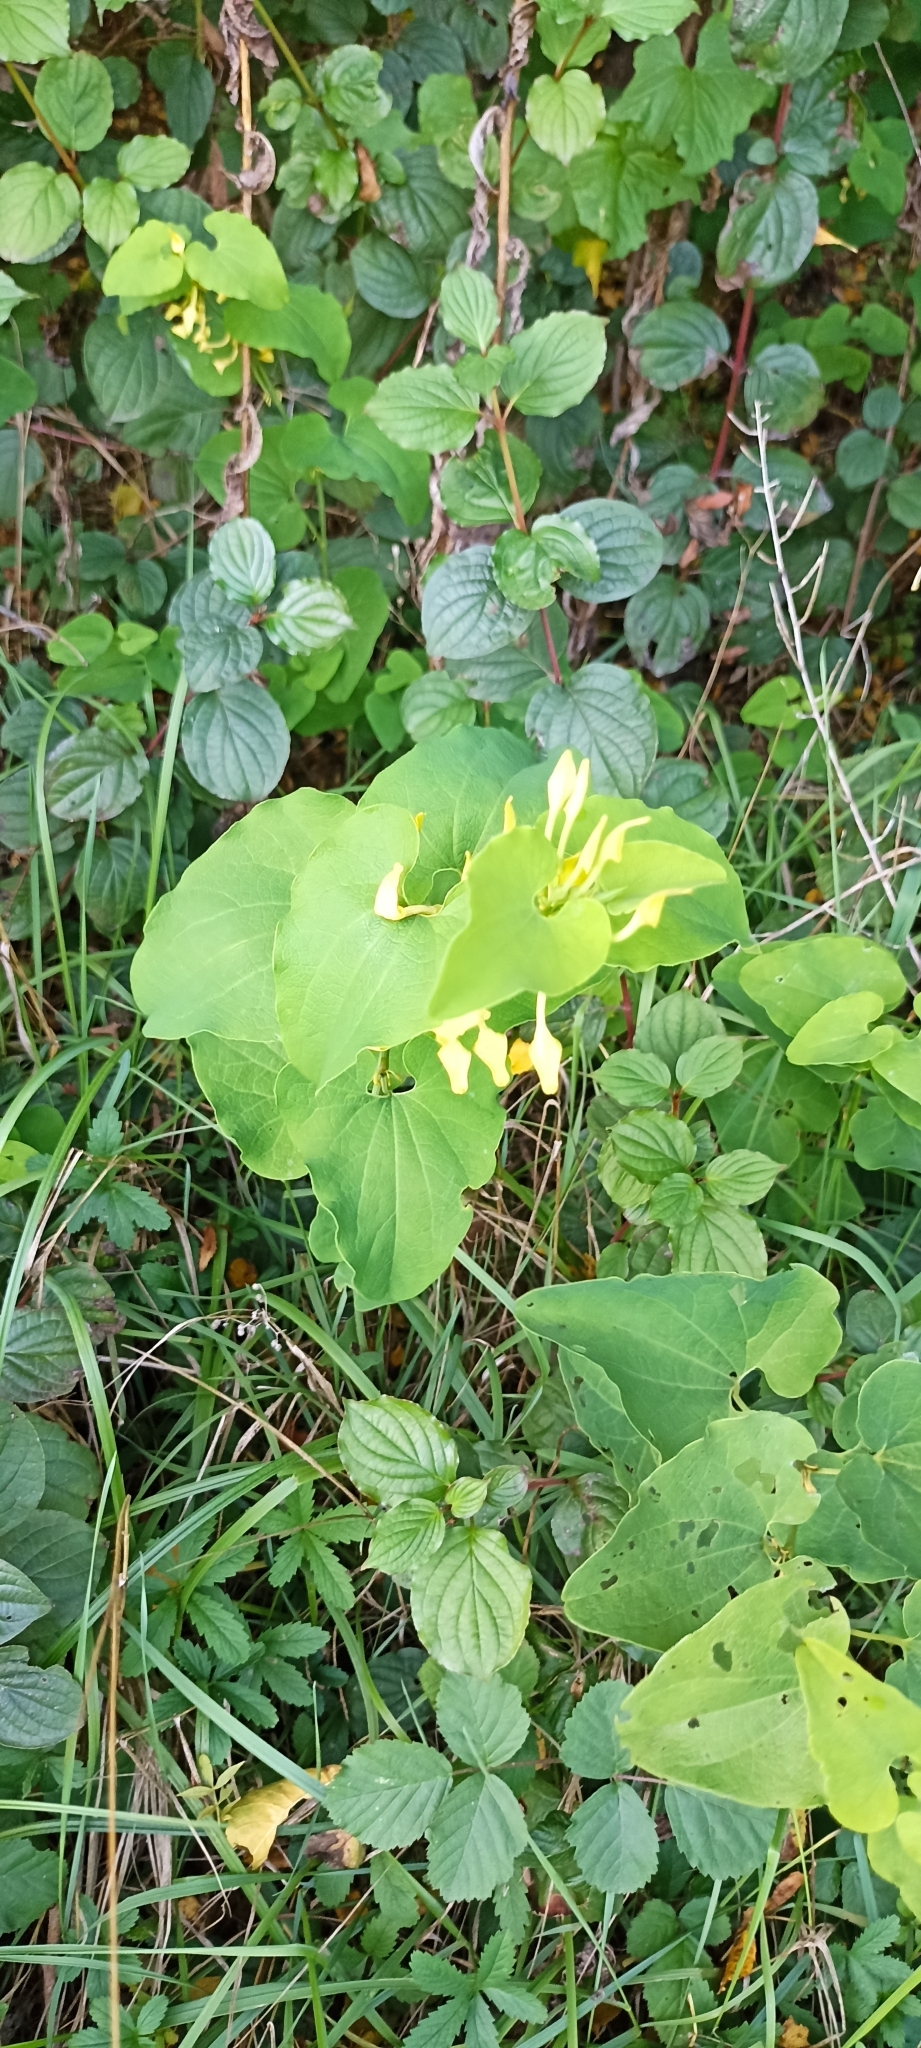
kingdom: Plantae
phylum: Tracheophyta
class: Magnoliopsida
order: Piperales
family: Aristolochiaceae
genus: Aristolochia
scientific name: Aristolochia clematitis
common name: Birthwort
